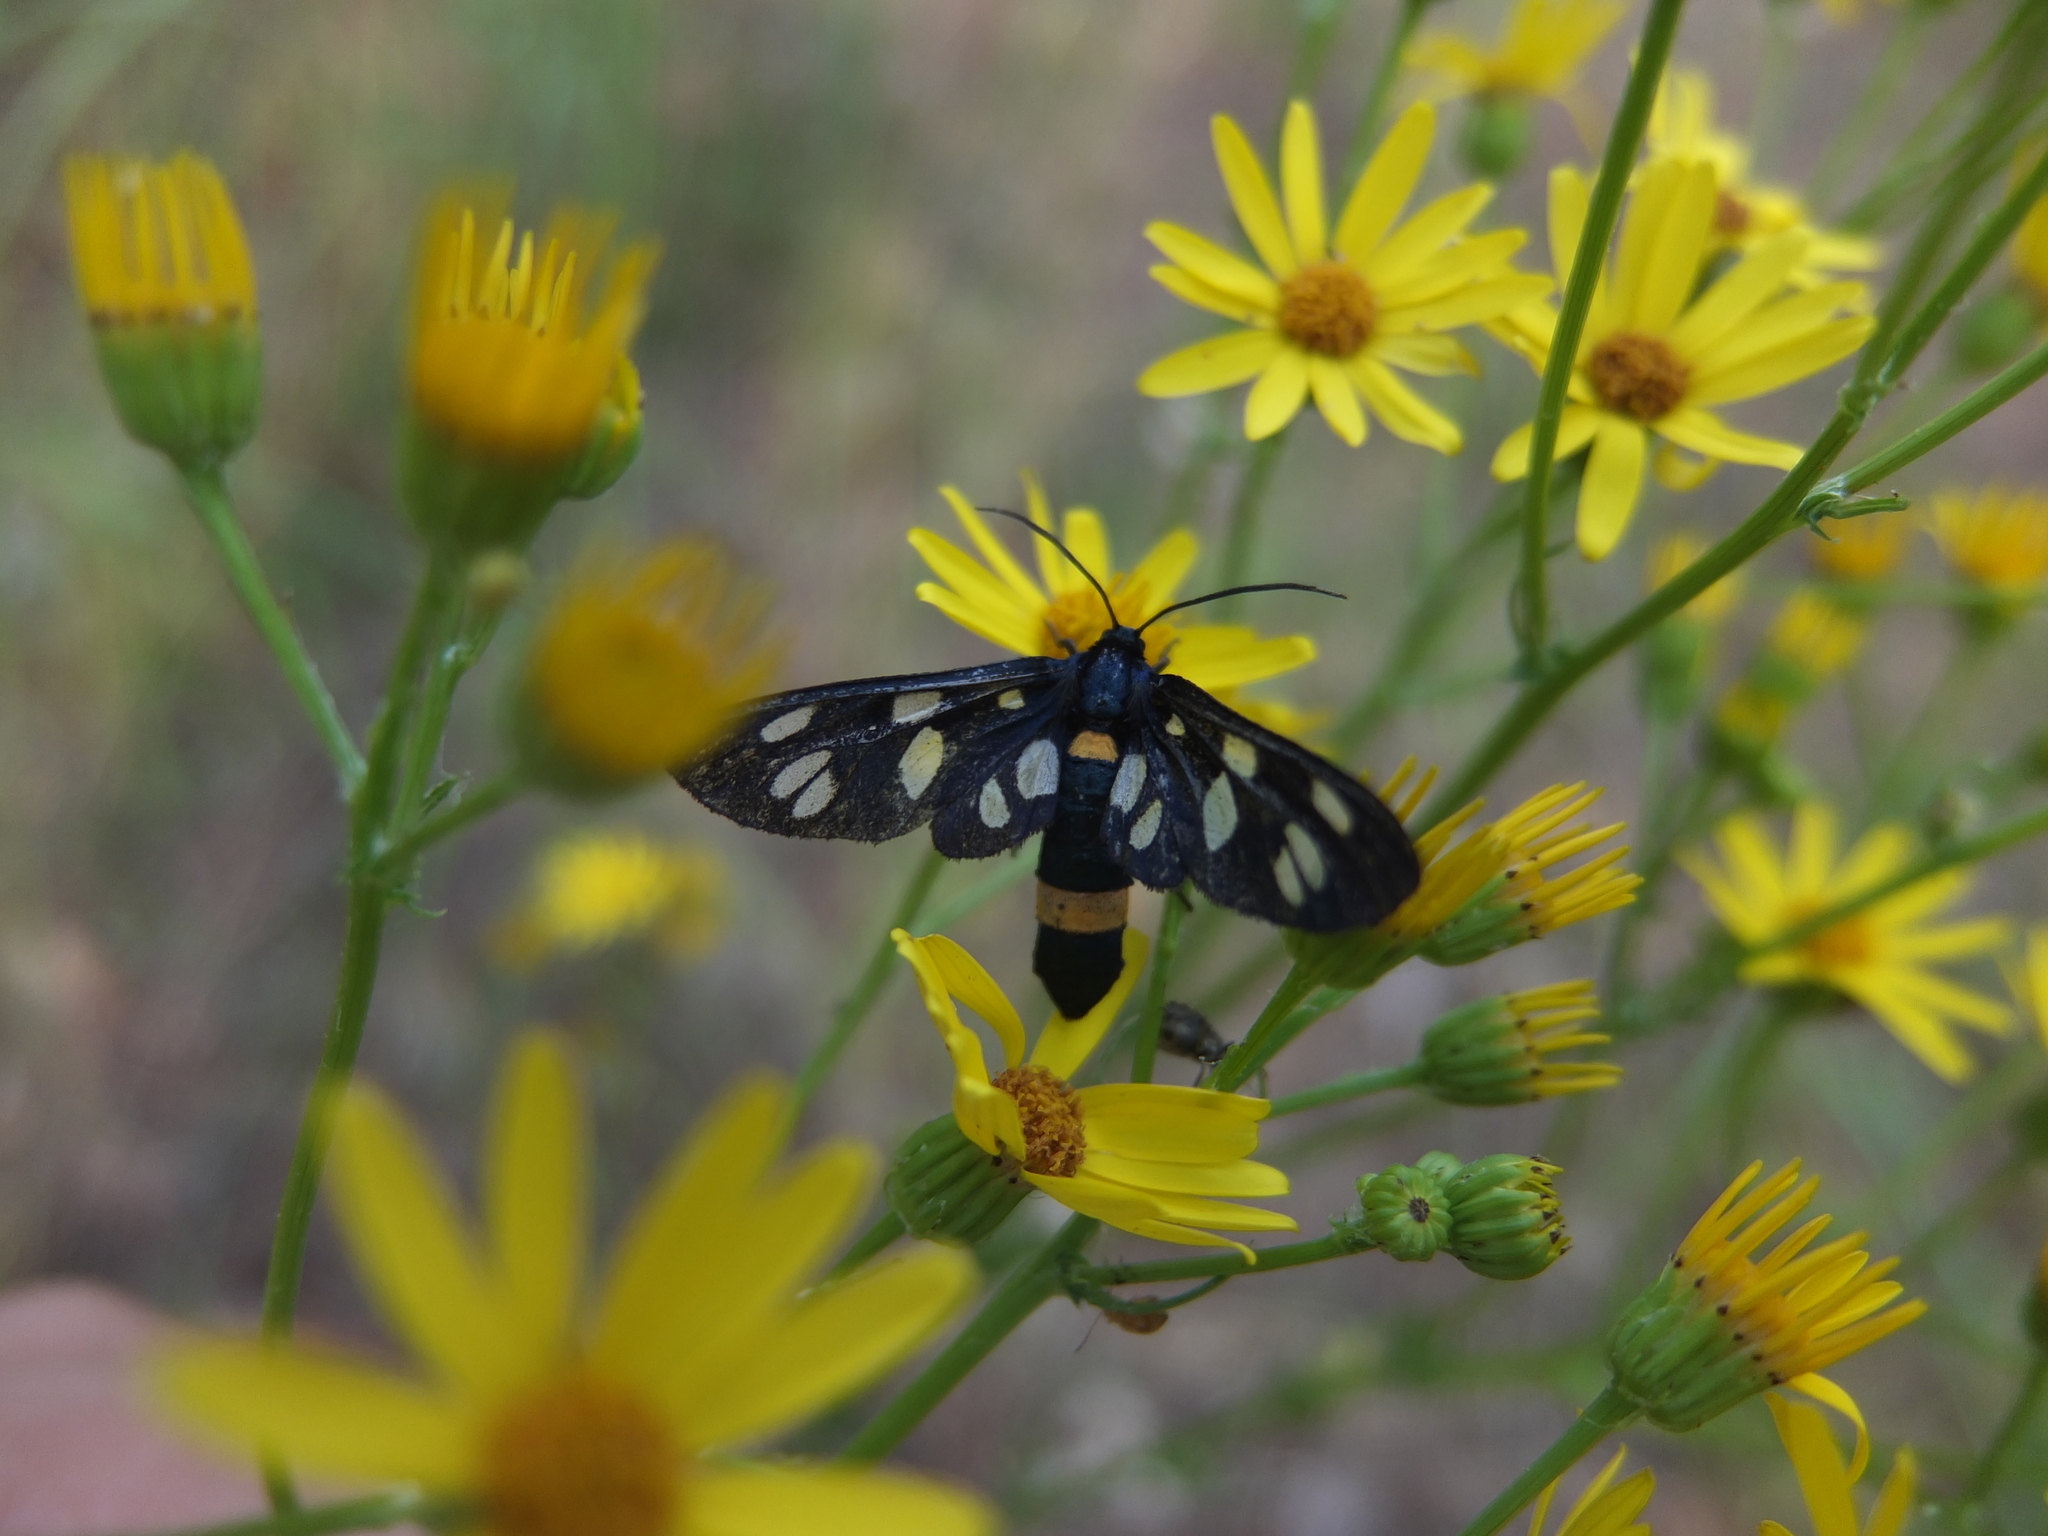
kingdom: Animalia
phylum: Arthropoda
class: Insecta
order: Lepidoptera
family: Erebidae
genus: Amata
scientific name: Amata nigricornis
